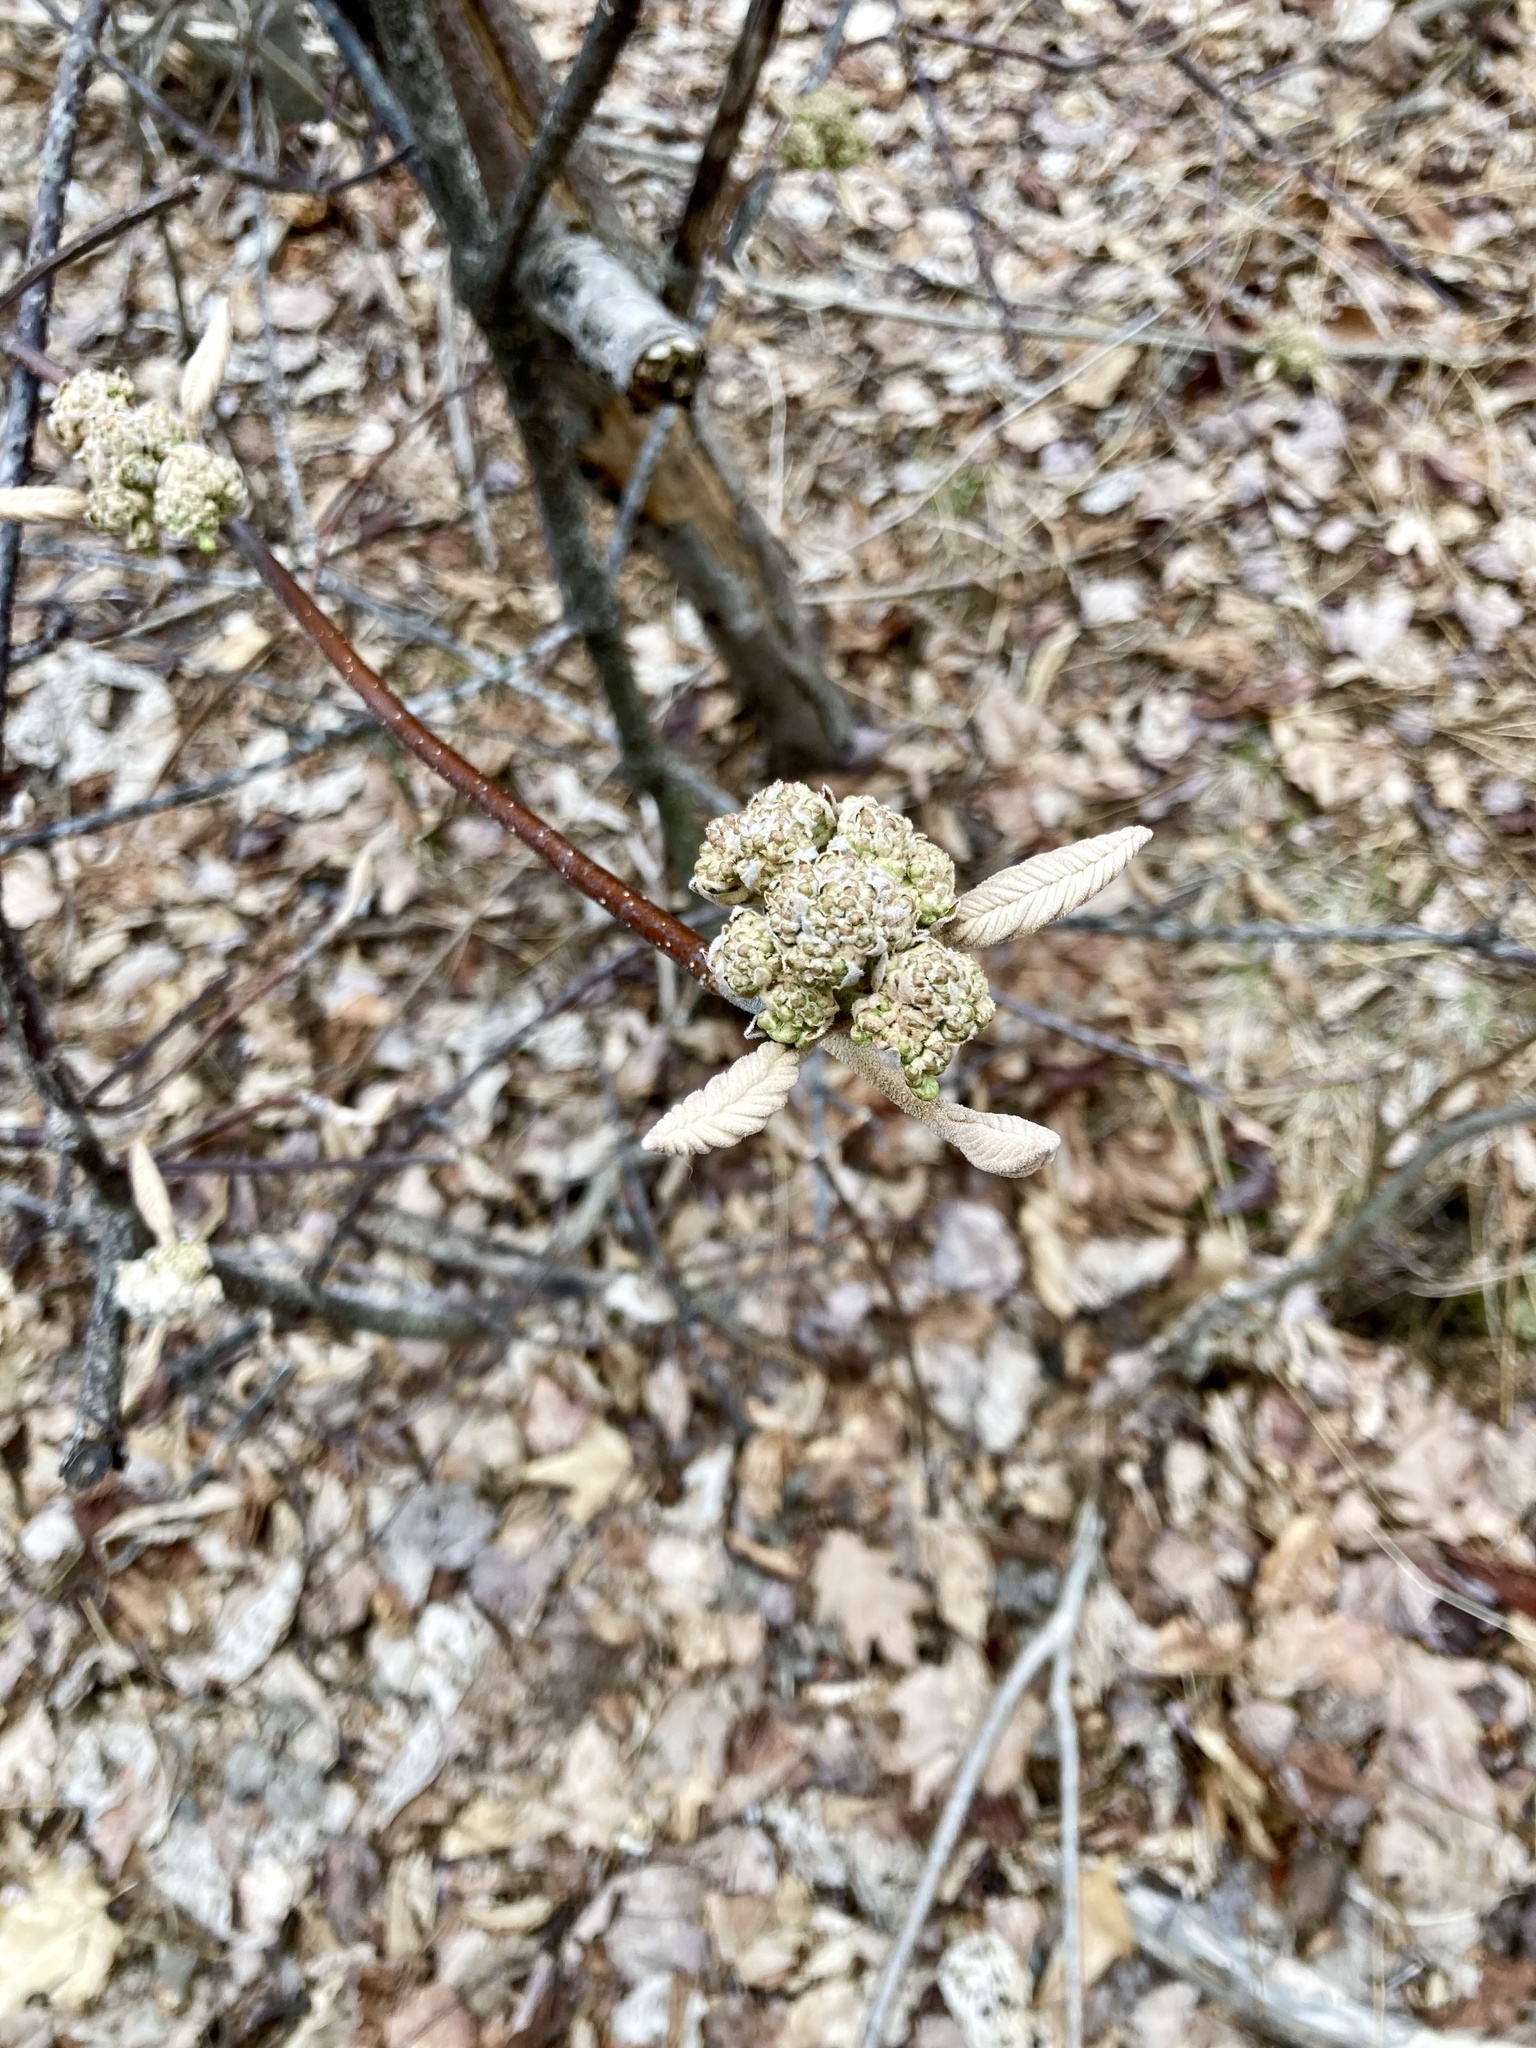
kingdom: Plantae
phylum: Tracheophyta
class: Magnoliopsida
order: Dipsacales
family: Viburnaceae
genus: Viburnum
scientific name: Viburnum lantanoides
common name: Hobblebush
